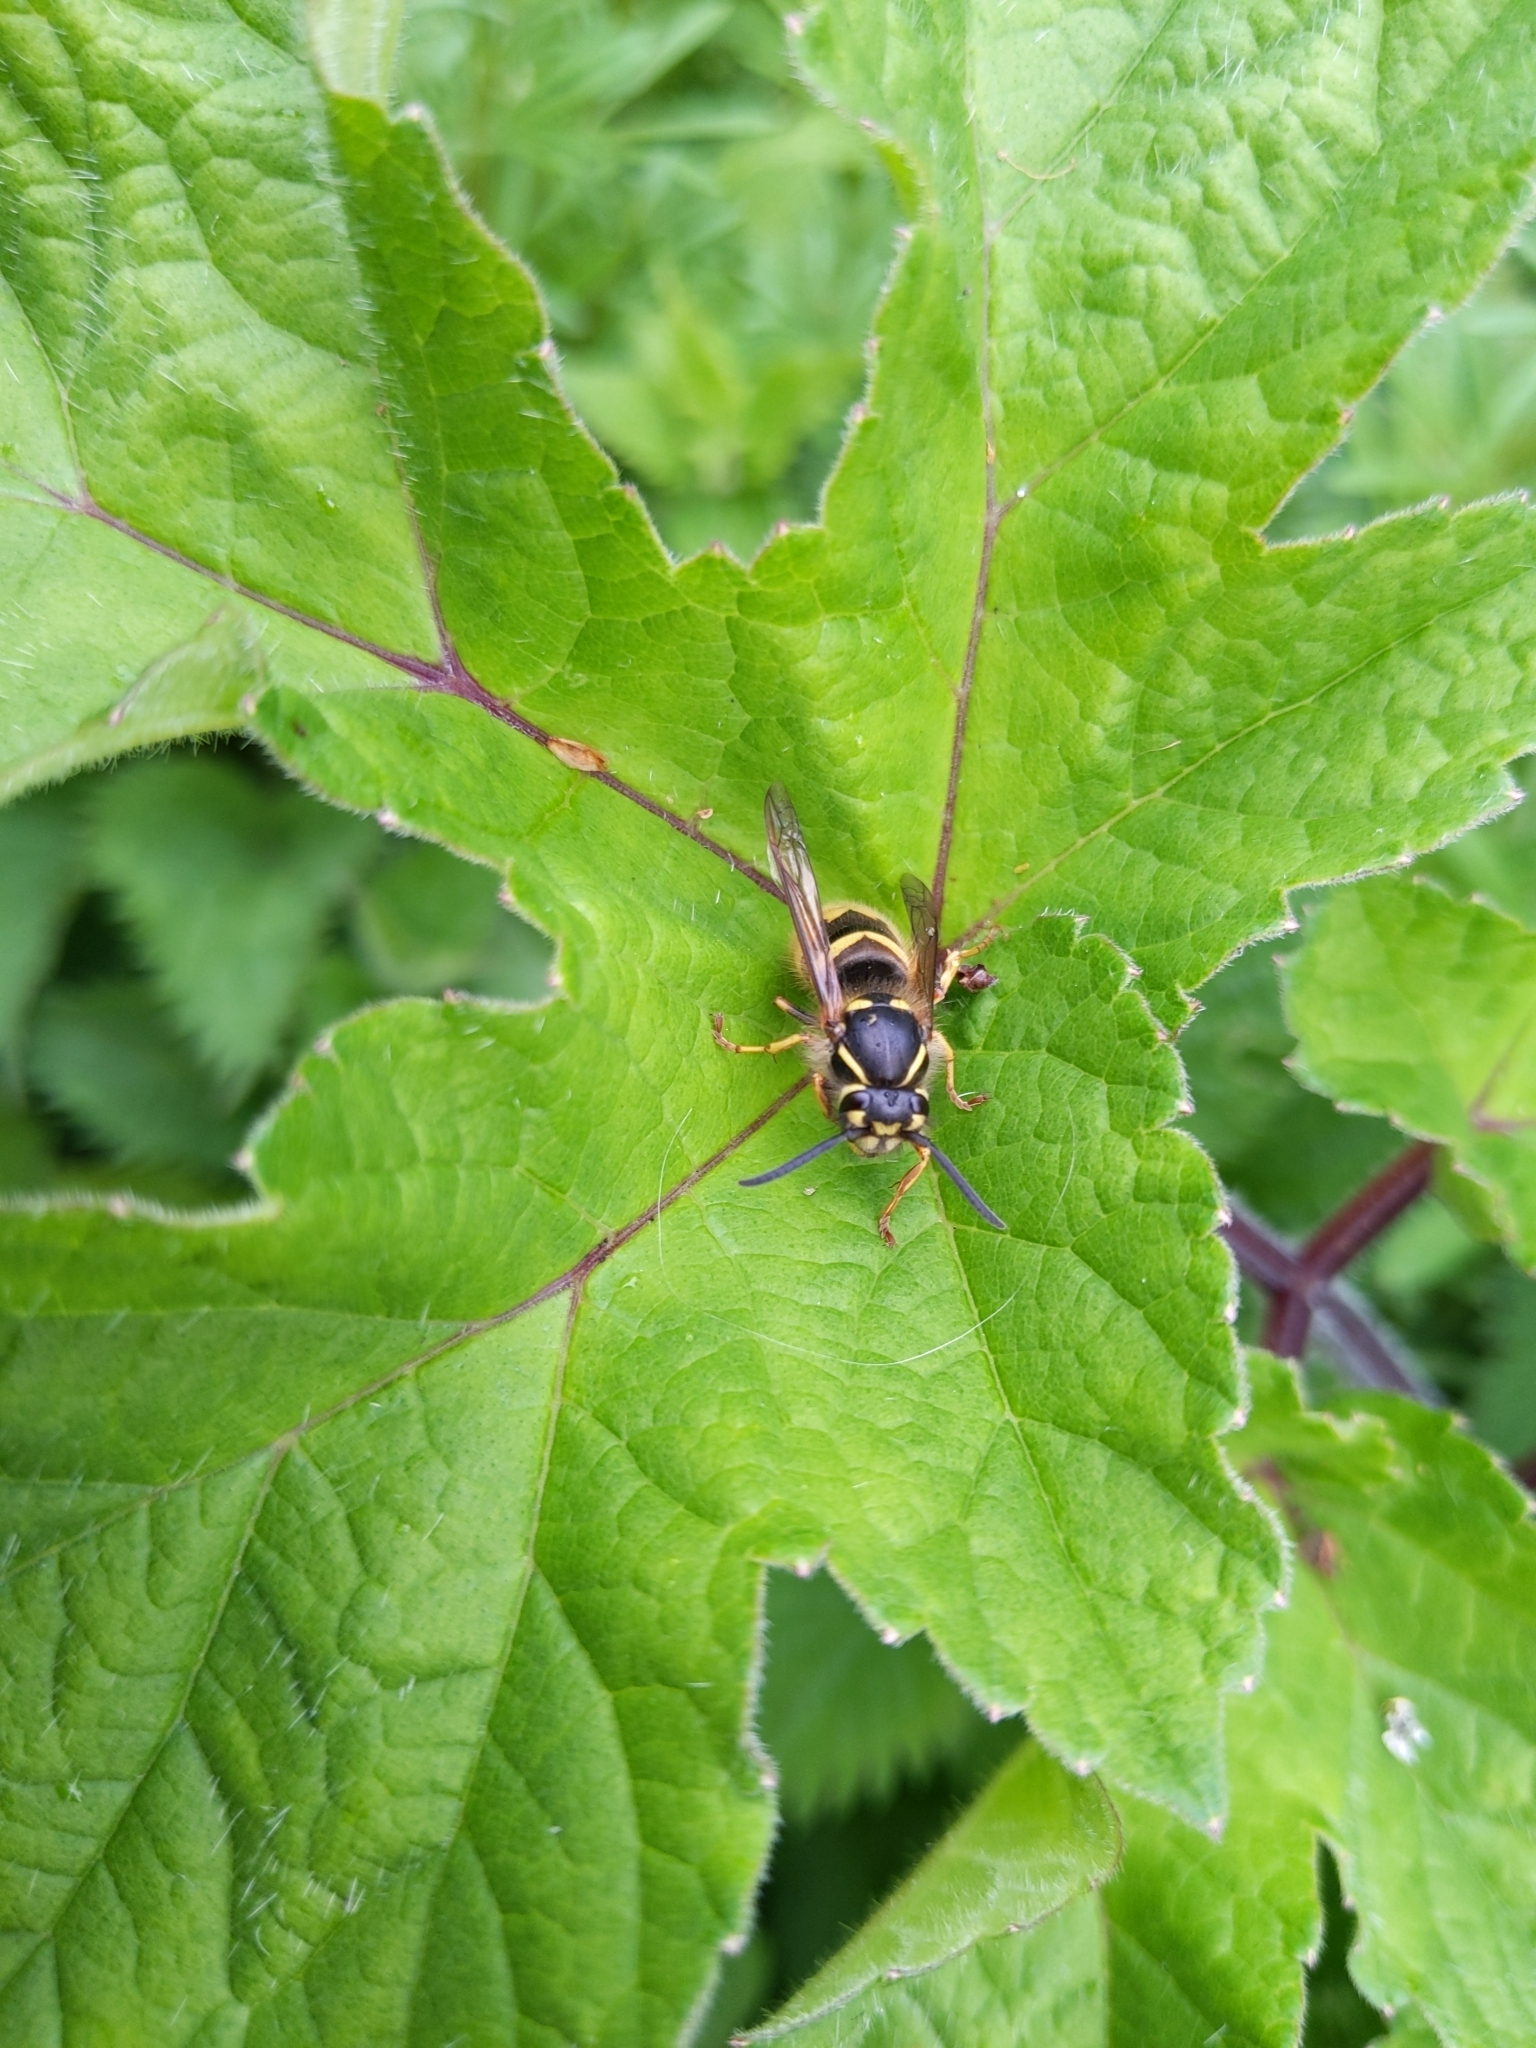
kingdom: Animalia
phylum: Arthropoda
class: Insecta
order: Hymenoptera
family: Vespidae
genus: Vespula
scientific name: Vespula vulgaris
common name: Common wasp
